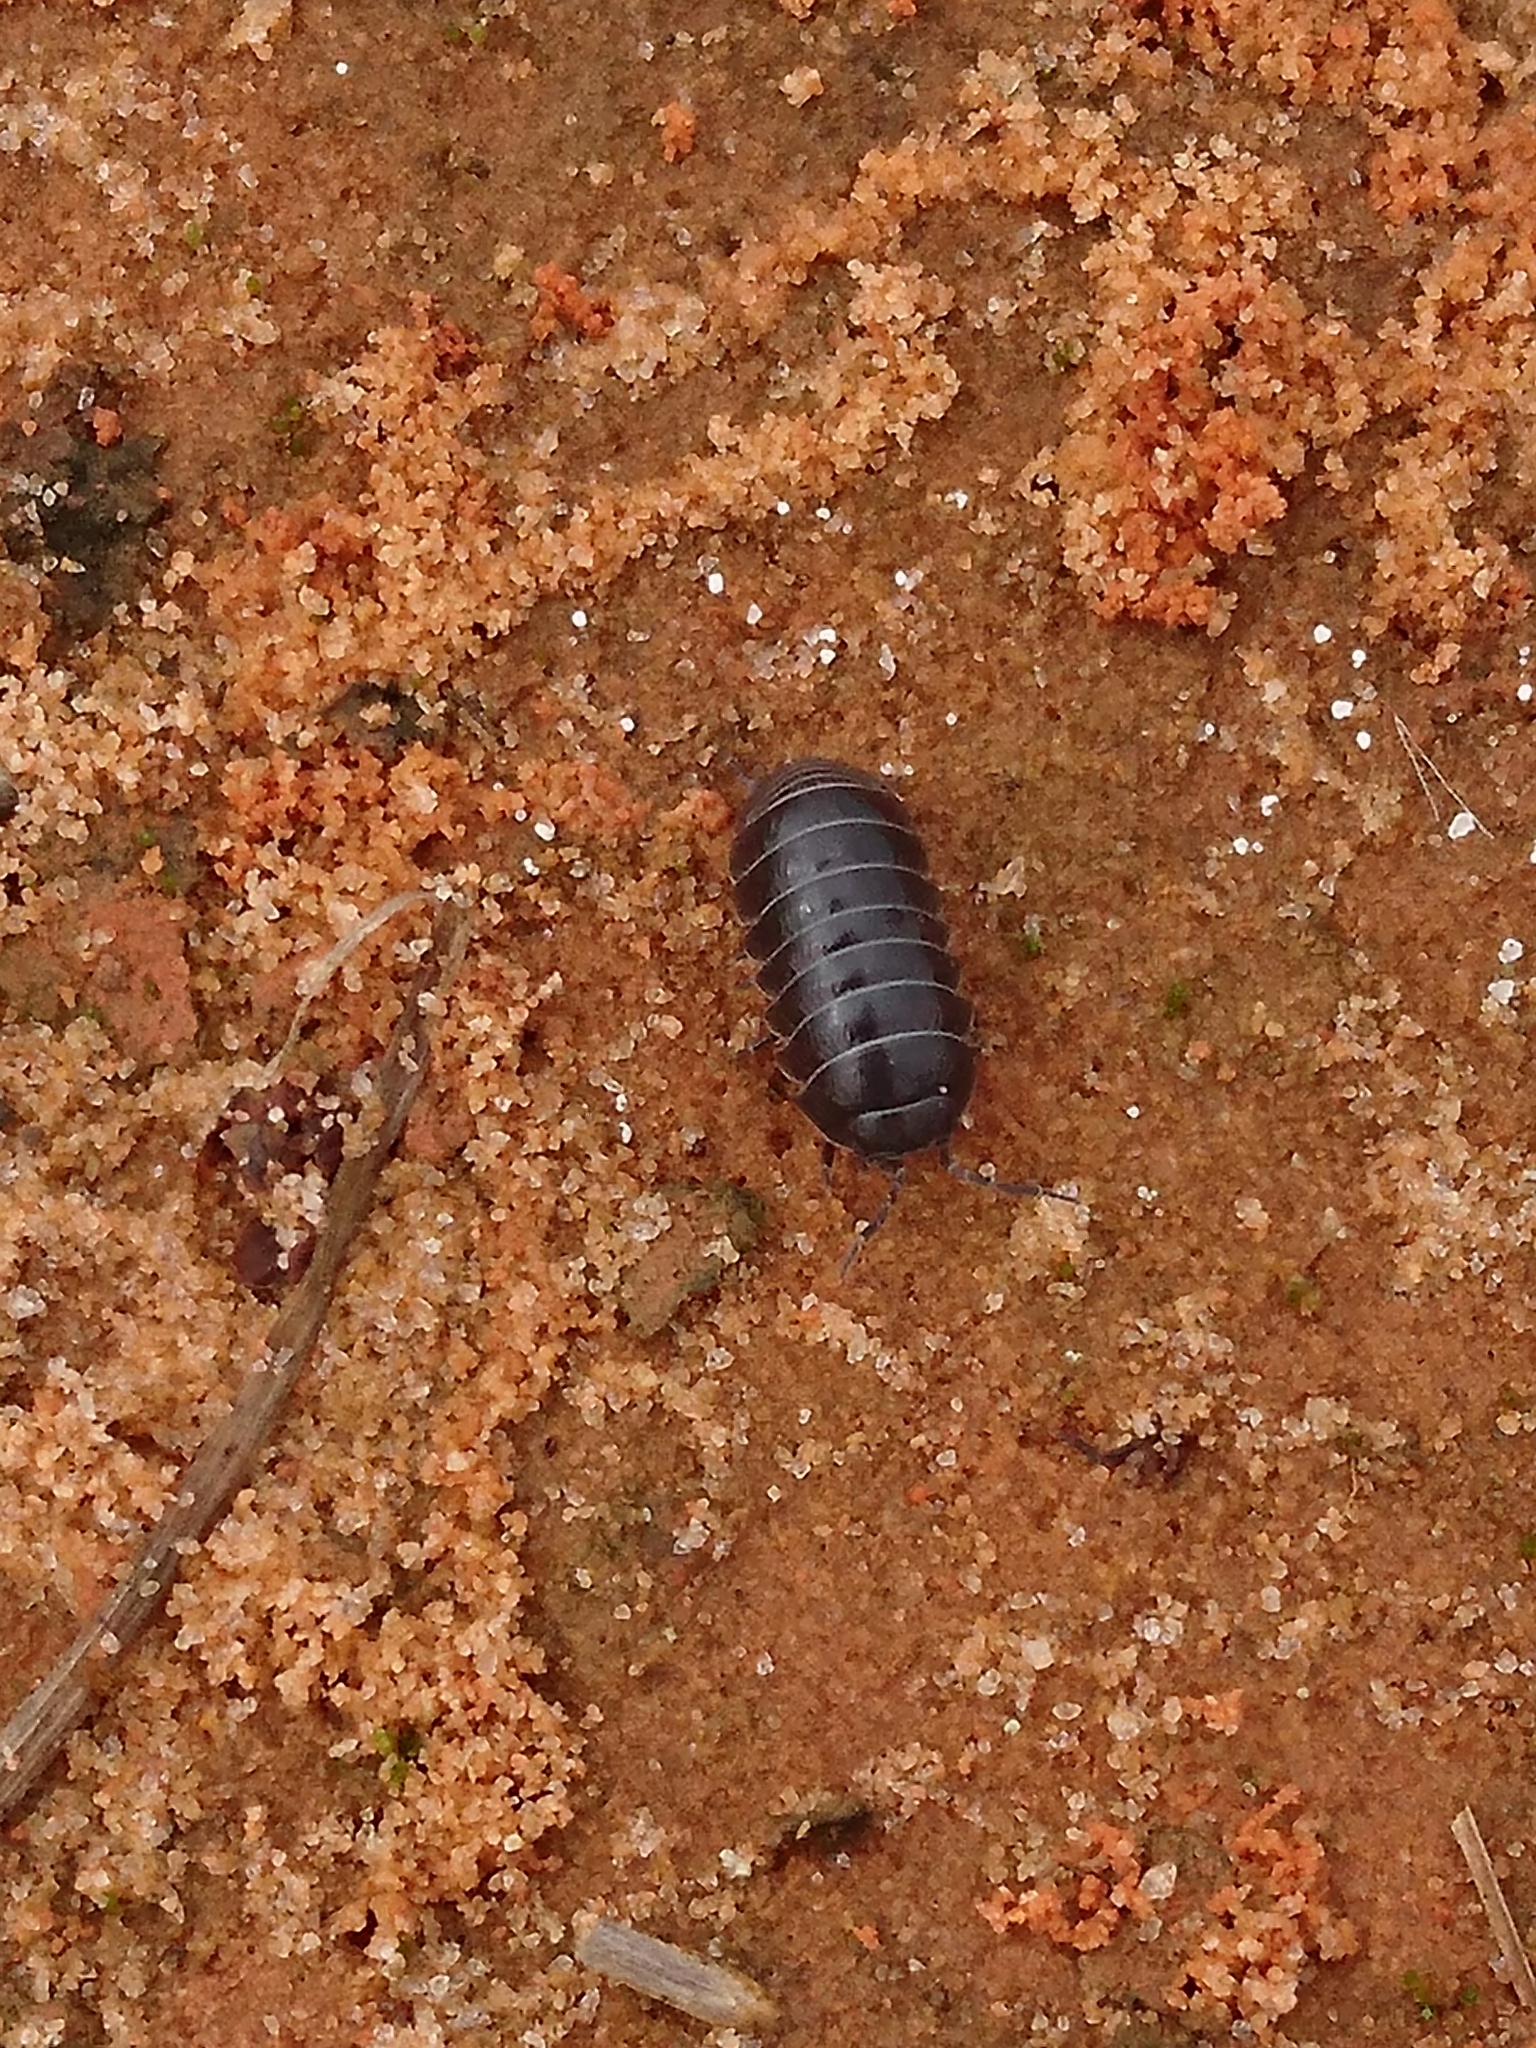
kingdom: Animalia
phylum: Arthropoda
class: Malacostraca
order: Isopoda
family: Armadillidiidae
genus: Armadillidium
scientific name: Armadillidium vulgare
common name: Common pill woodlouse
